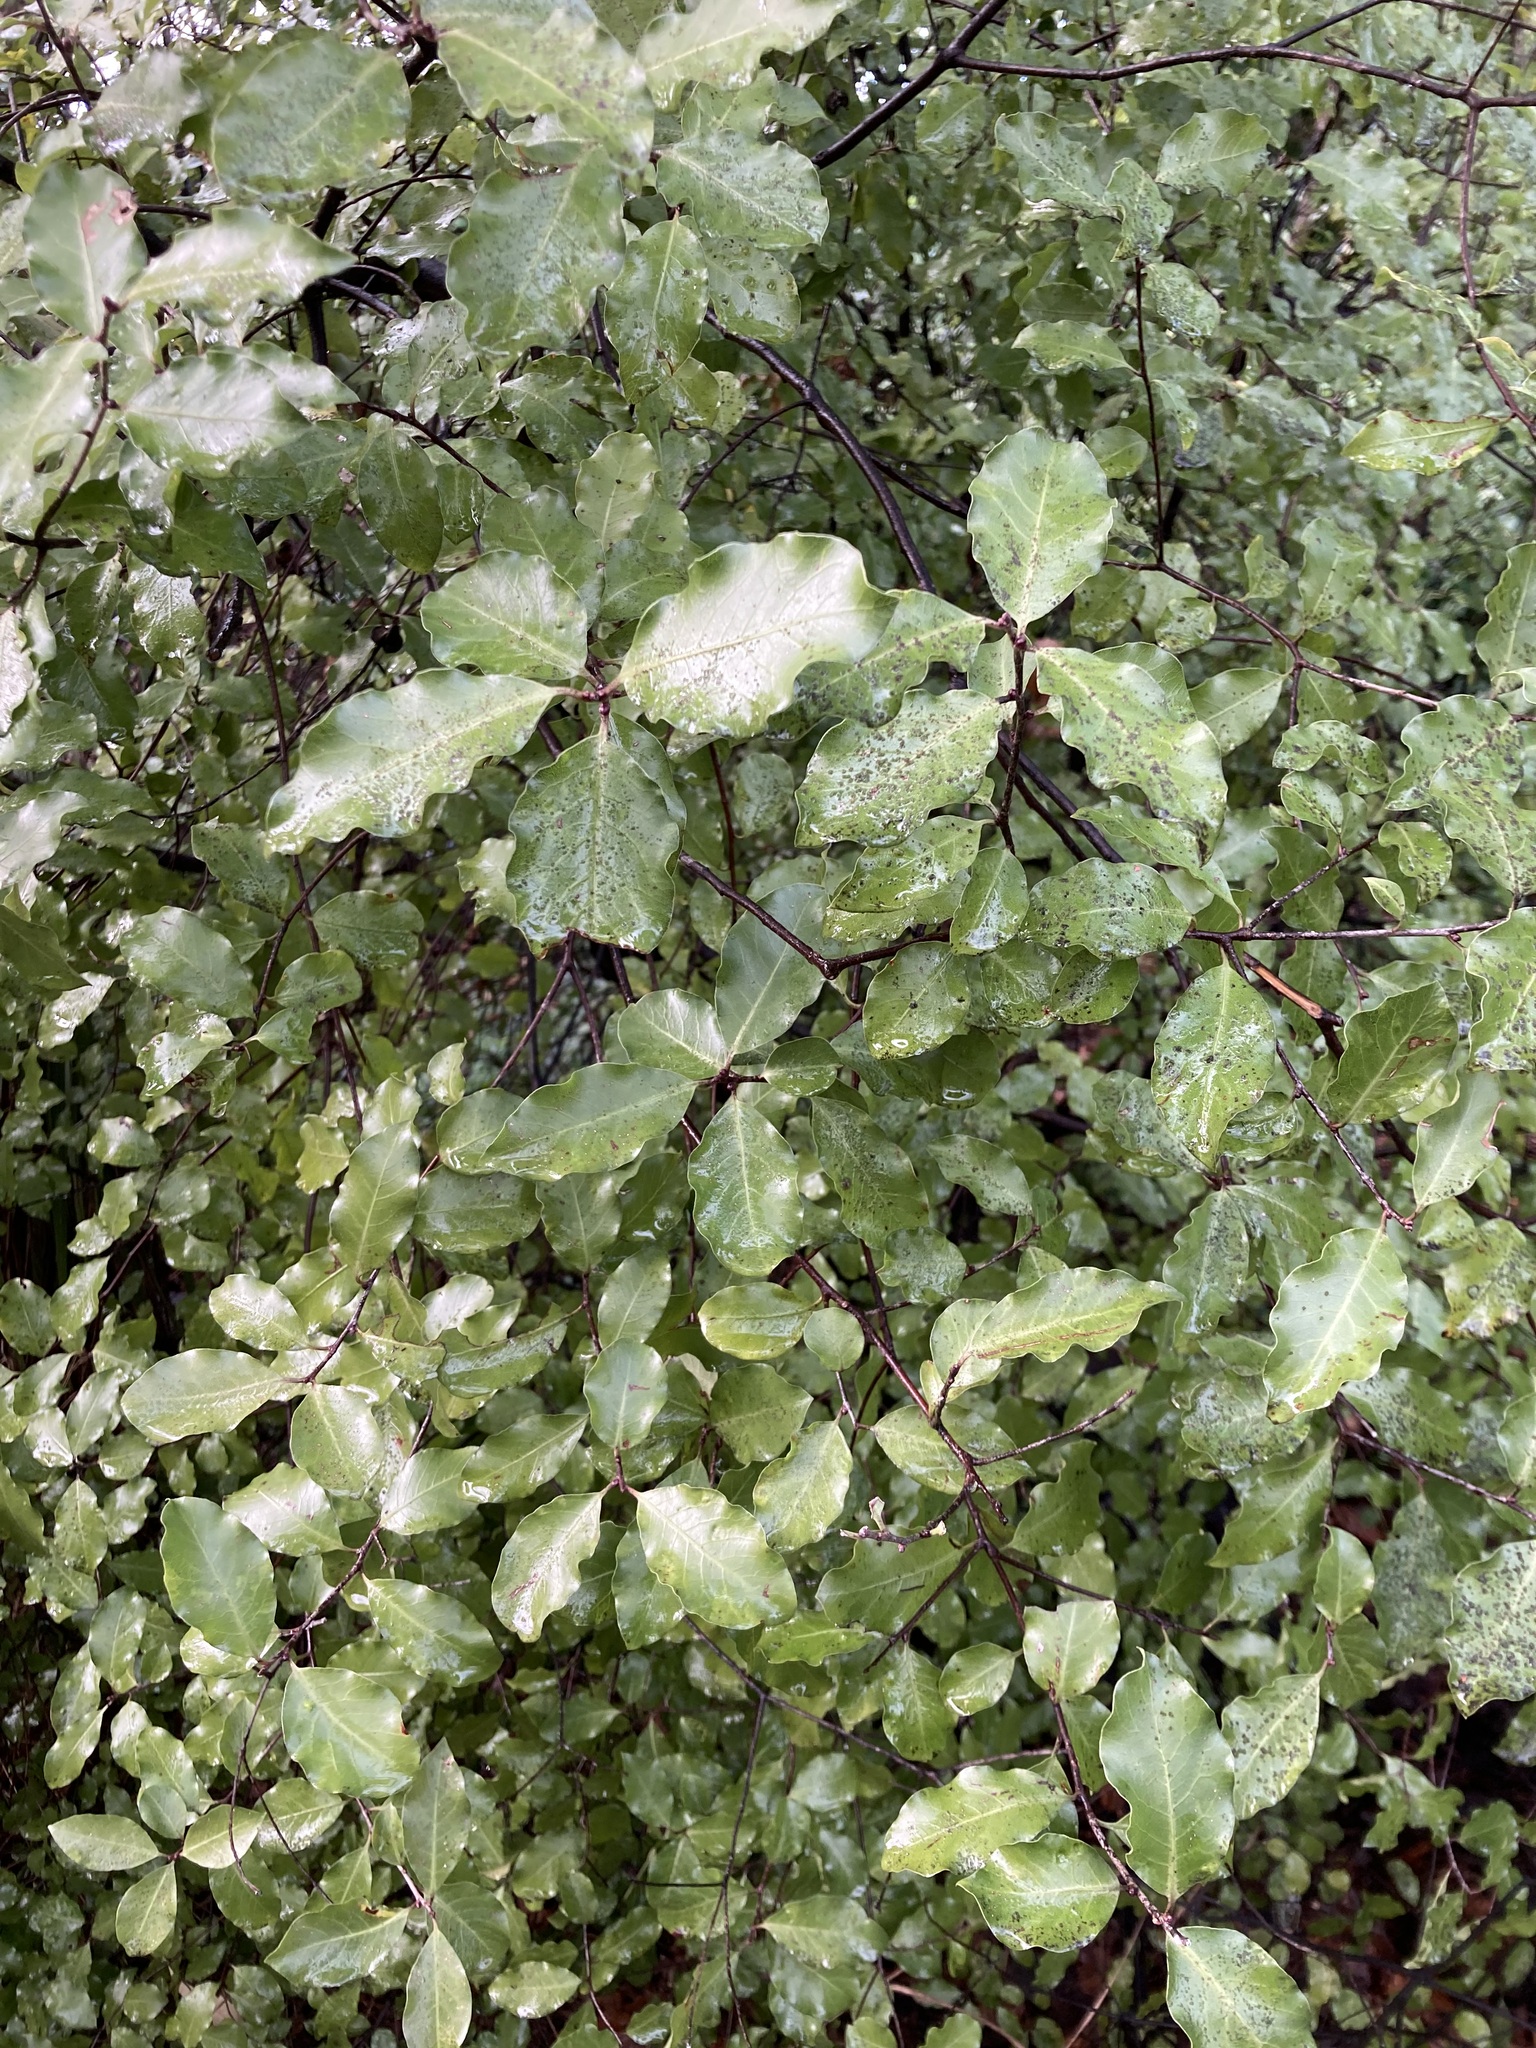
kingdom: Plantae
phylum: Tracheophyta
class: Magnoliopsida
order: Apiales
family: Pittosporaceae
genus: Pittosporum
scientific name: Pittosporum tenuifolium
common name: Kohuhu
